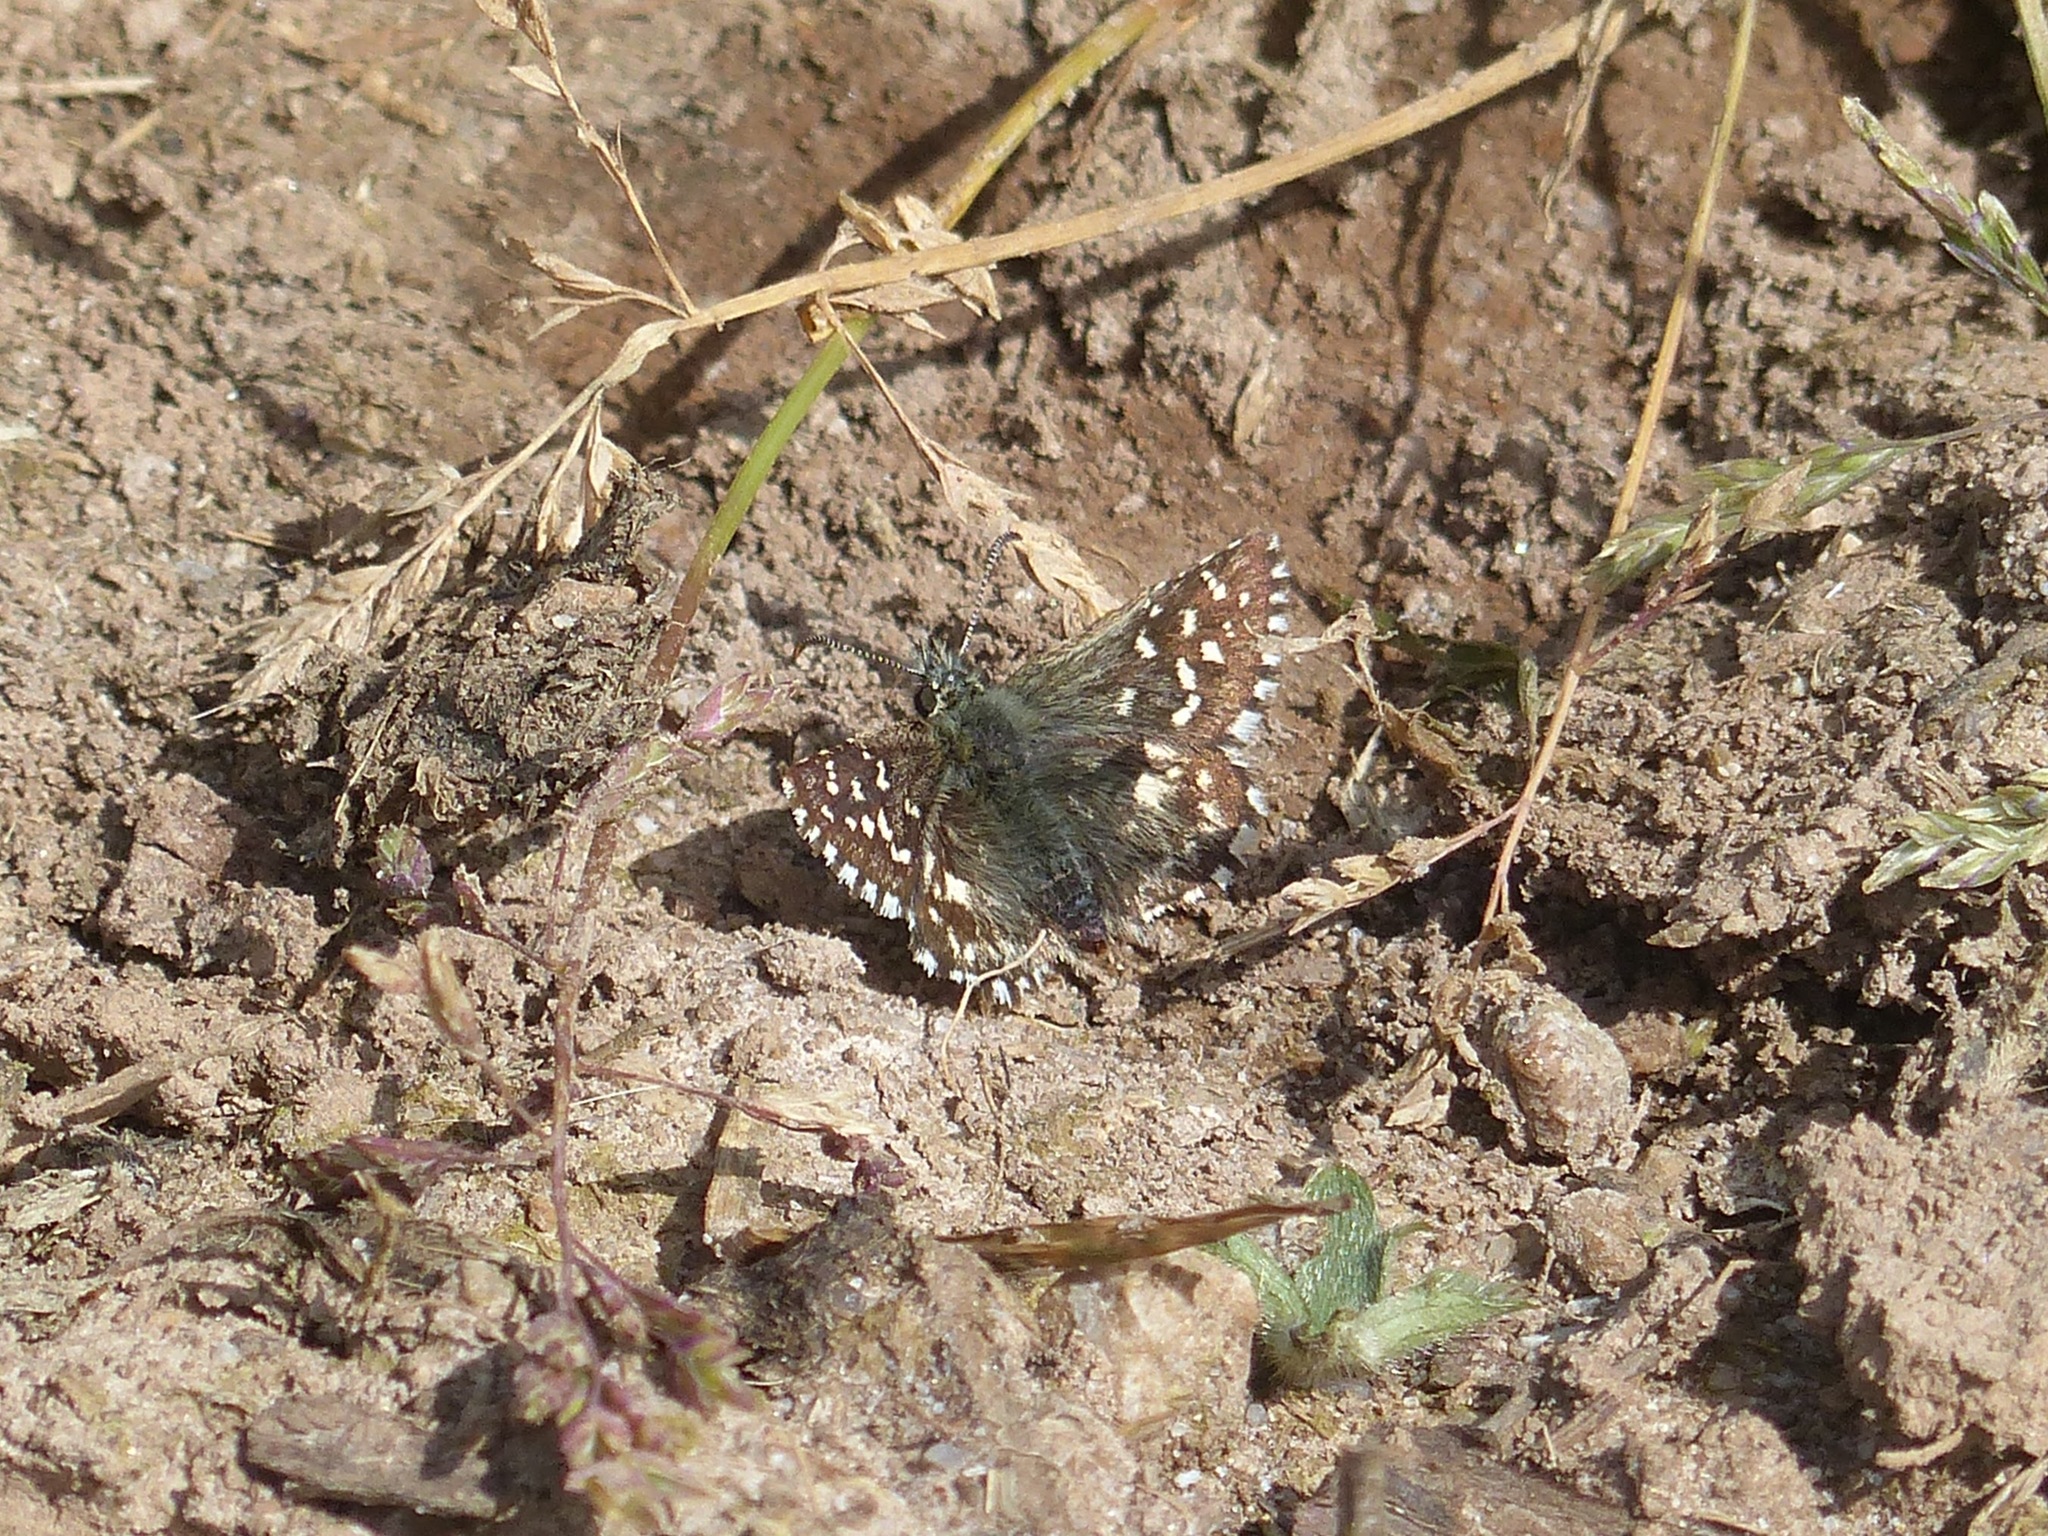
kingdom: Animalia
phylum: Arthropoda
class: Insecta
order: Lepidoptera
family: Hesperiidae
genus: Pyrgus
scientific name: Pyrgus malvoides
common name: Southern grizzled skipper
